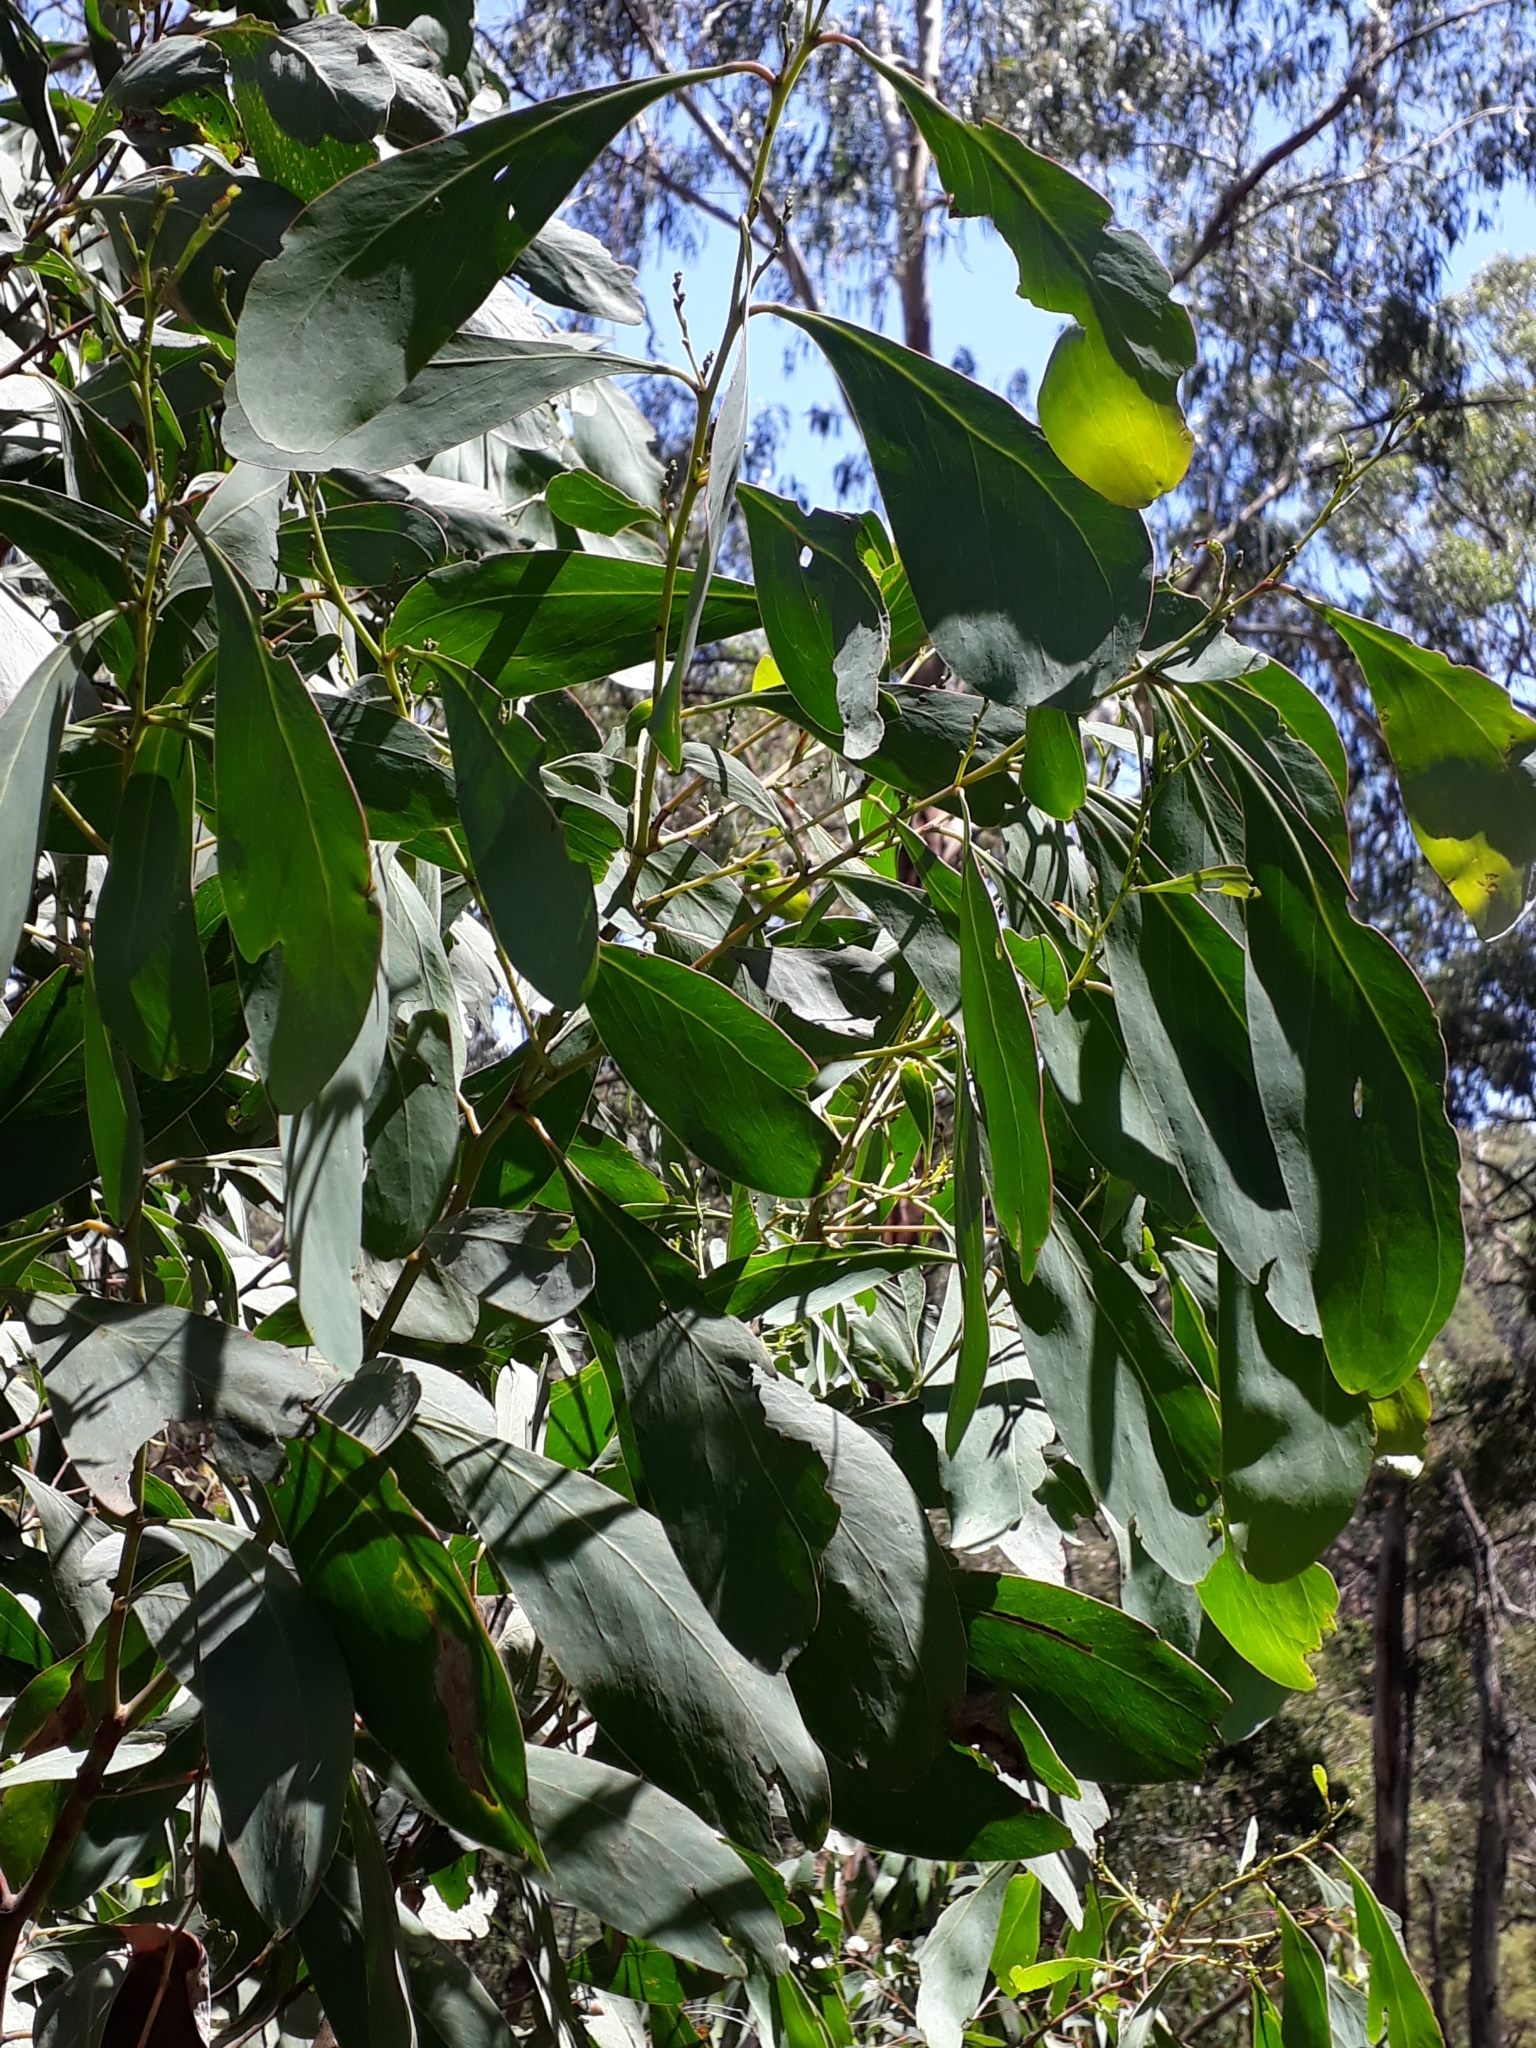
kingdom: Plantae
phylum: Tracheophyta
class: Magnoliopsida
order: Fabales
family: Fabaceae
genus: Acacia
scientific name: Acacia obliquinervia
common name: Mountain hickory wattle
